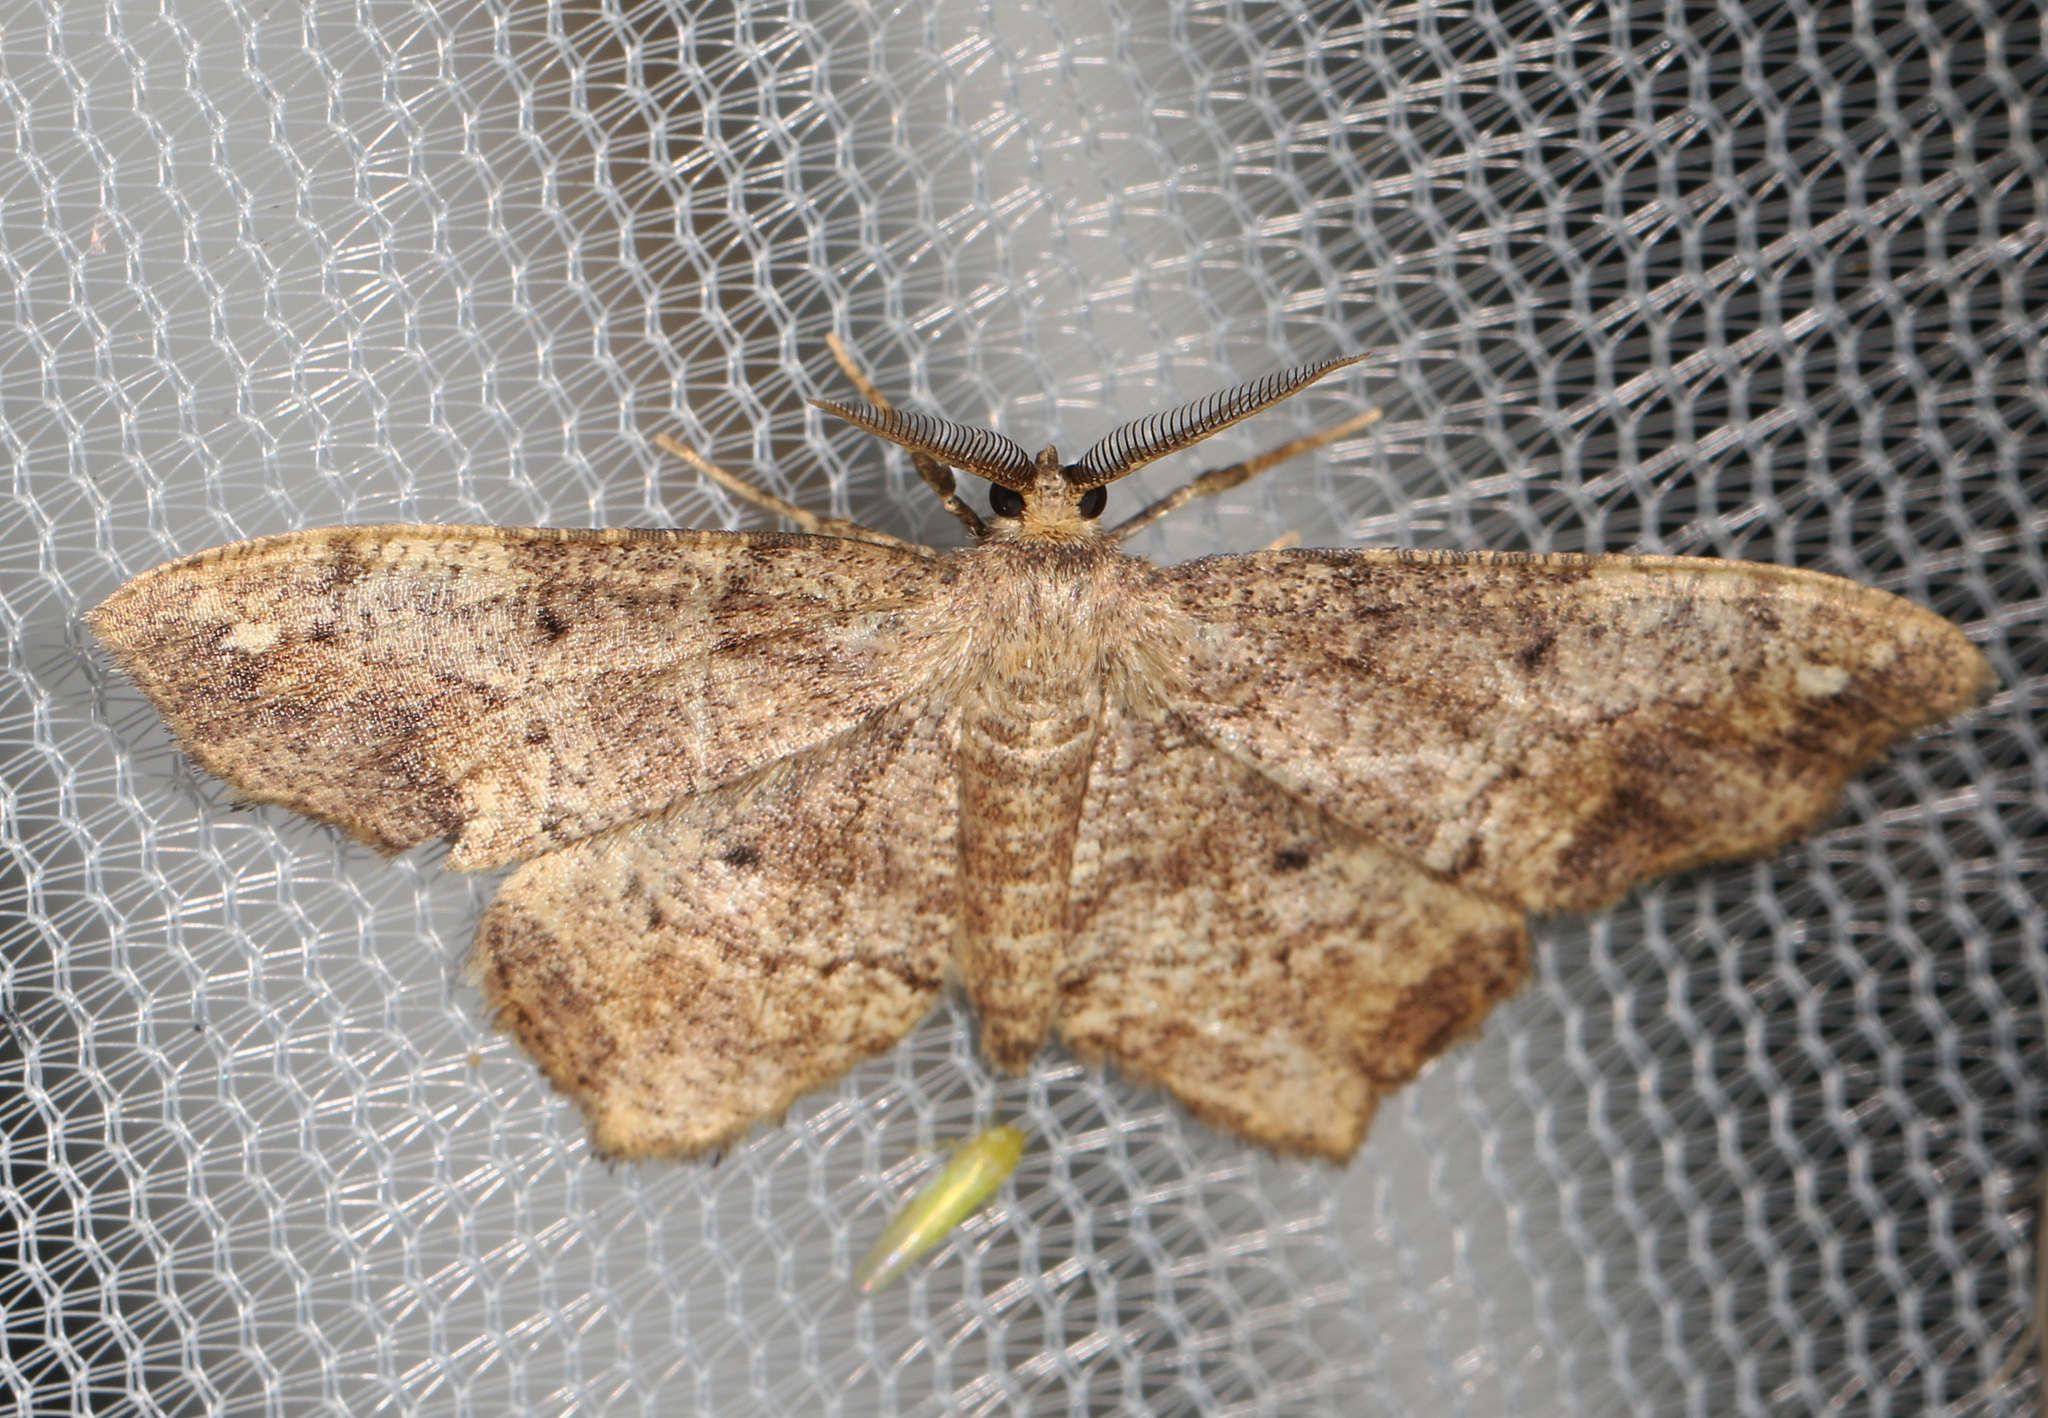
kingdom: Animalia
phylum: Arthropoda
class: Insecta
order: Lepidoptera
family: Geometridae
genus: Hypagyrtis
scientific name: Hypagyrtis unipunctata
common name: One-spotted variant
